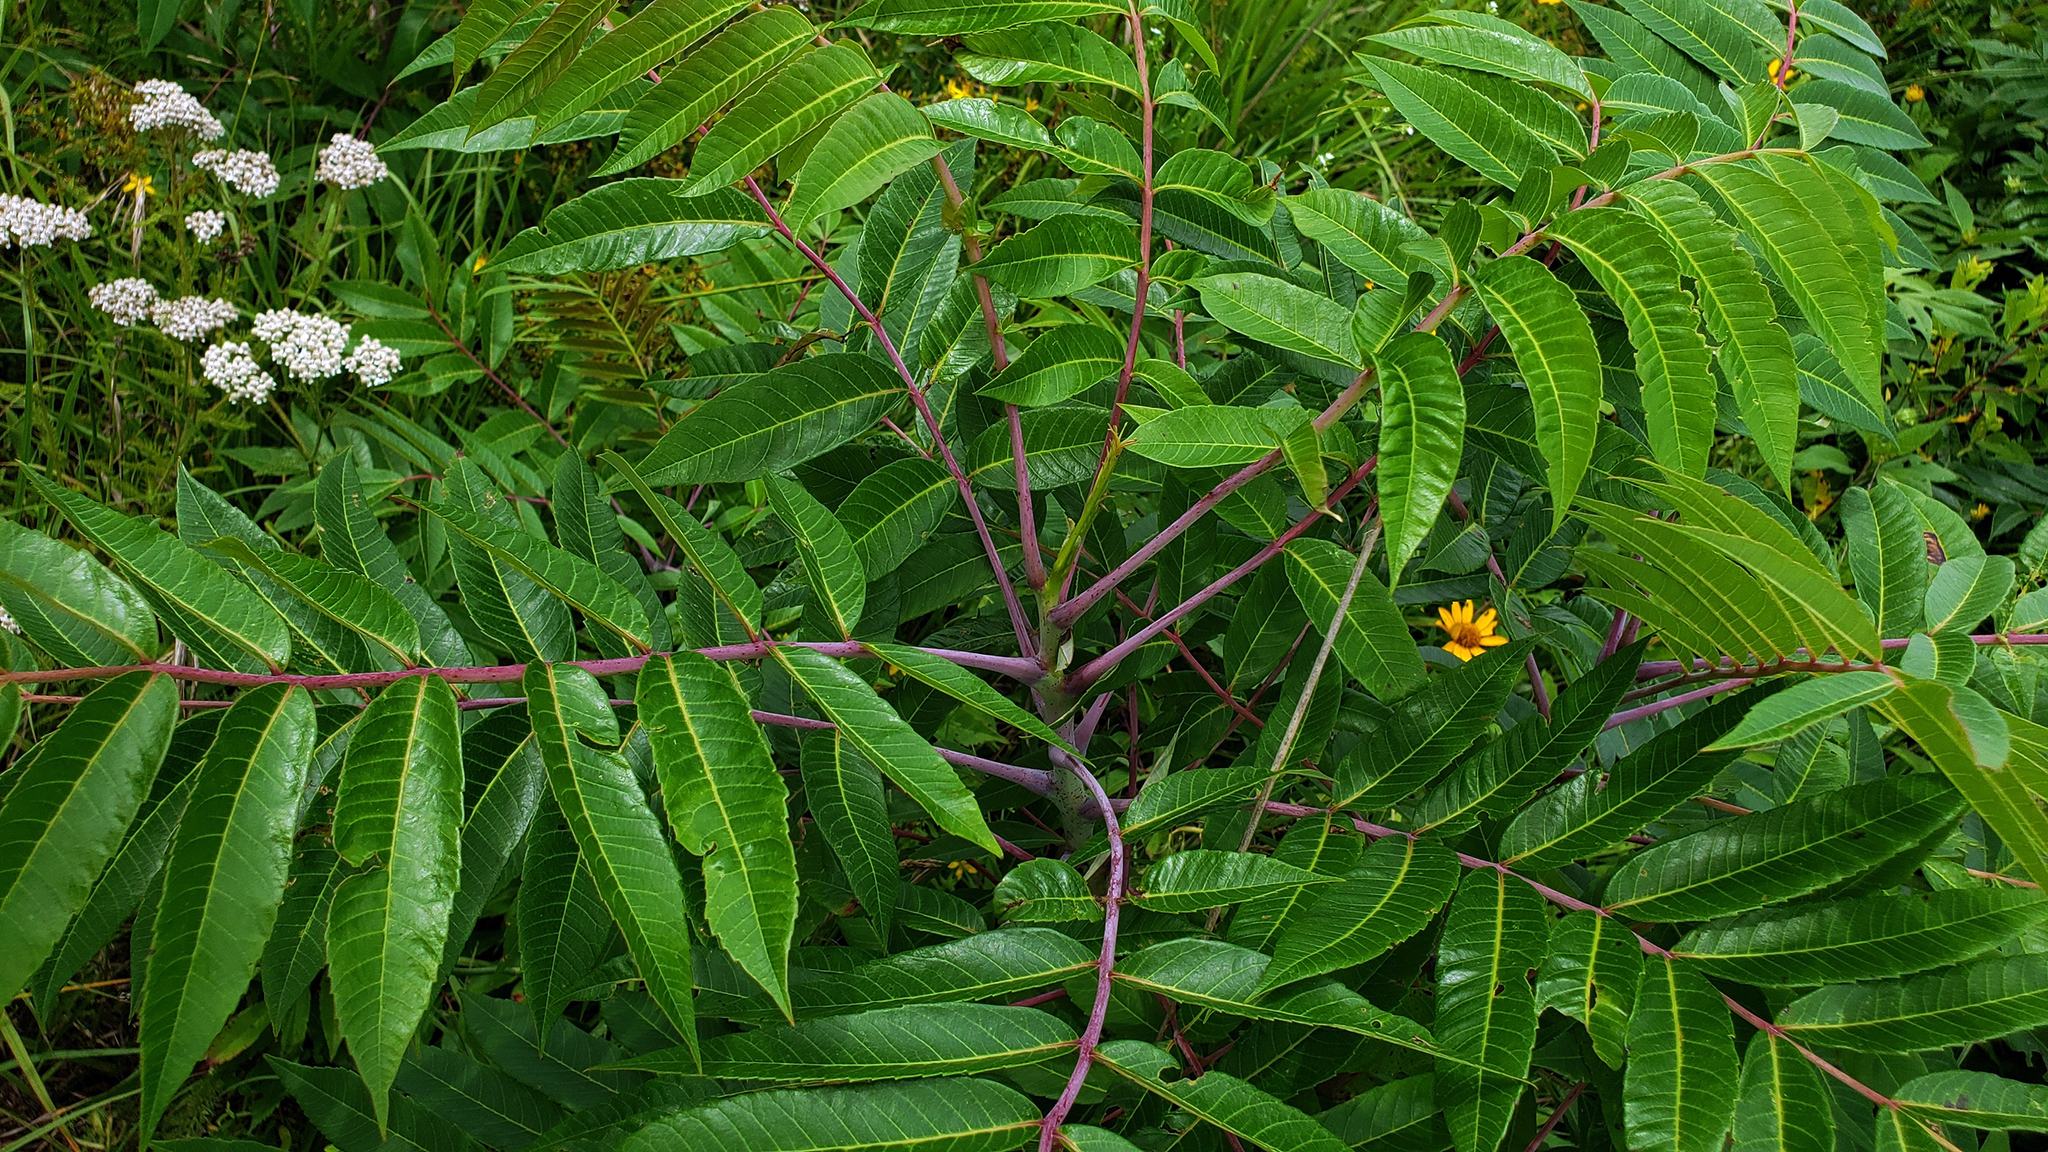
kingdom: Plantae
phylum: Tracheophyta
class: Magnoliopsida
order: Sapindales
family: Anacardiaceae
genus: Rhus
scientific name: Rhus glabra
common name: Scarlet sumac
